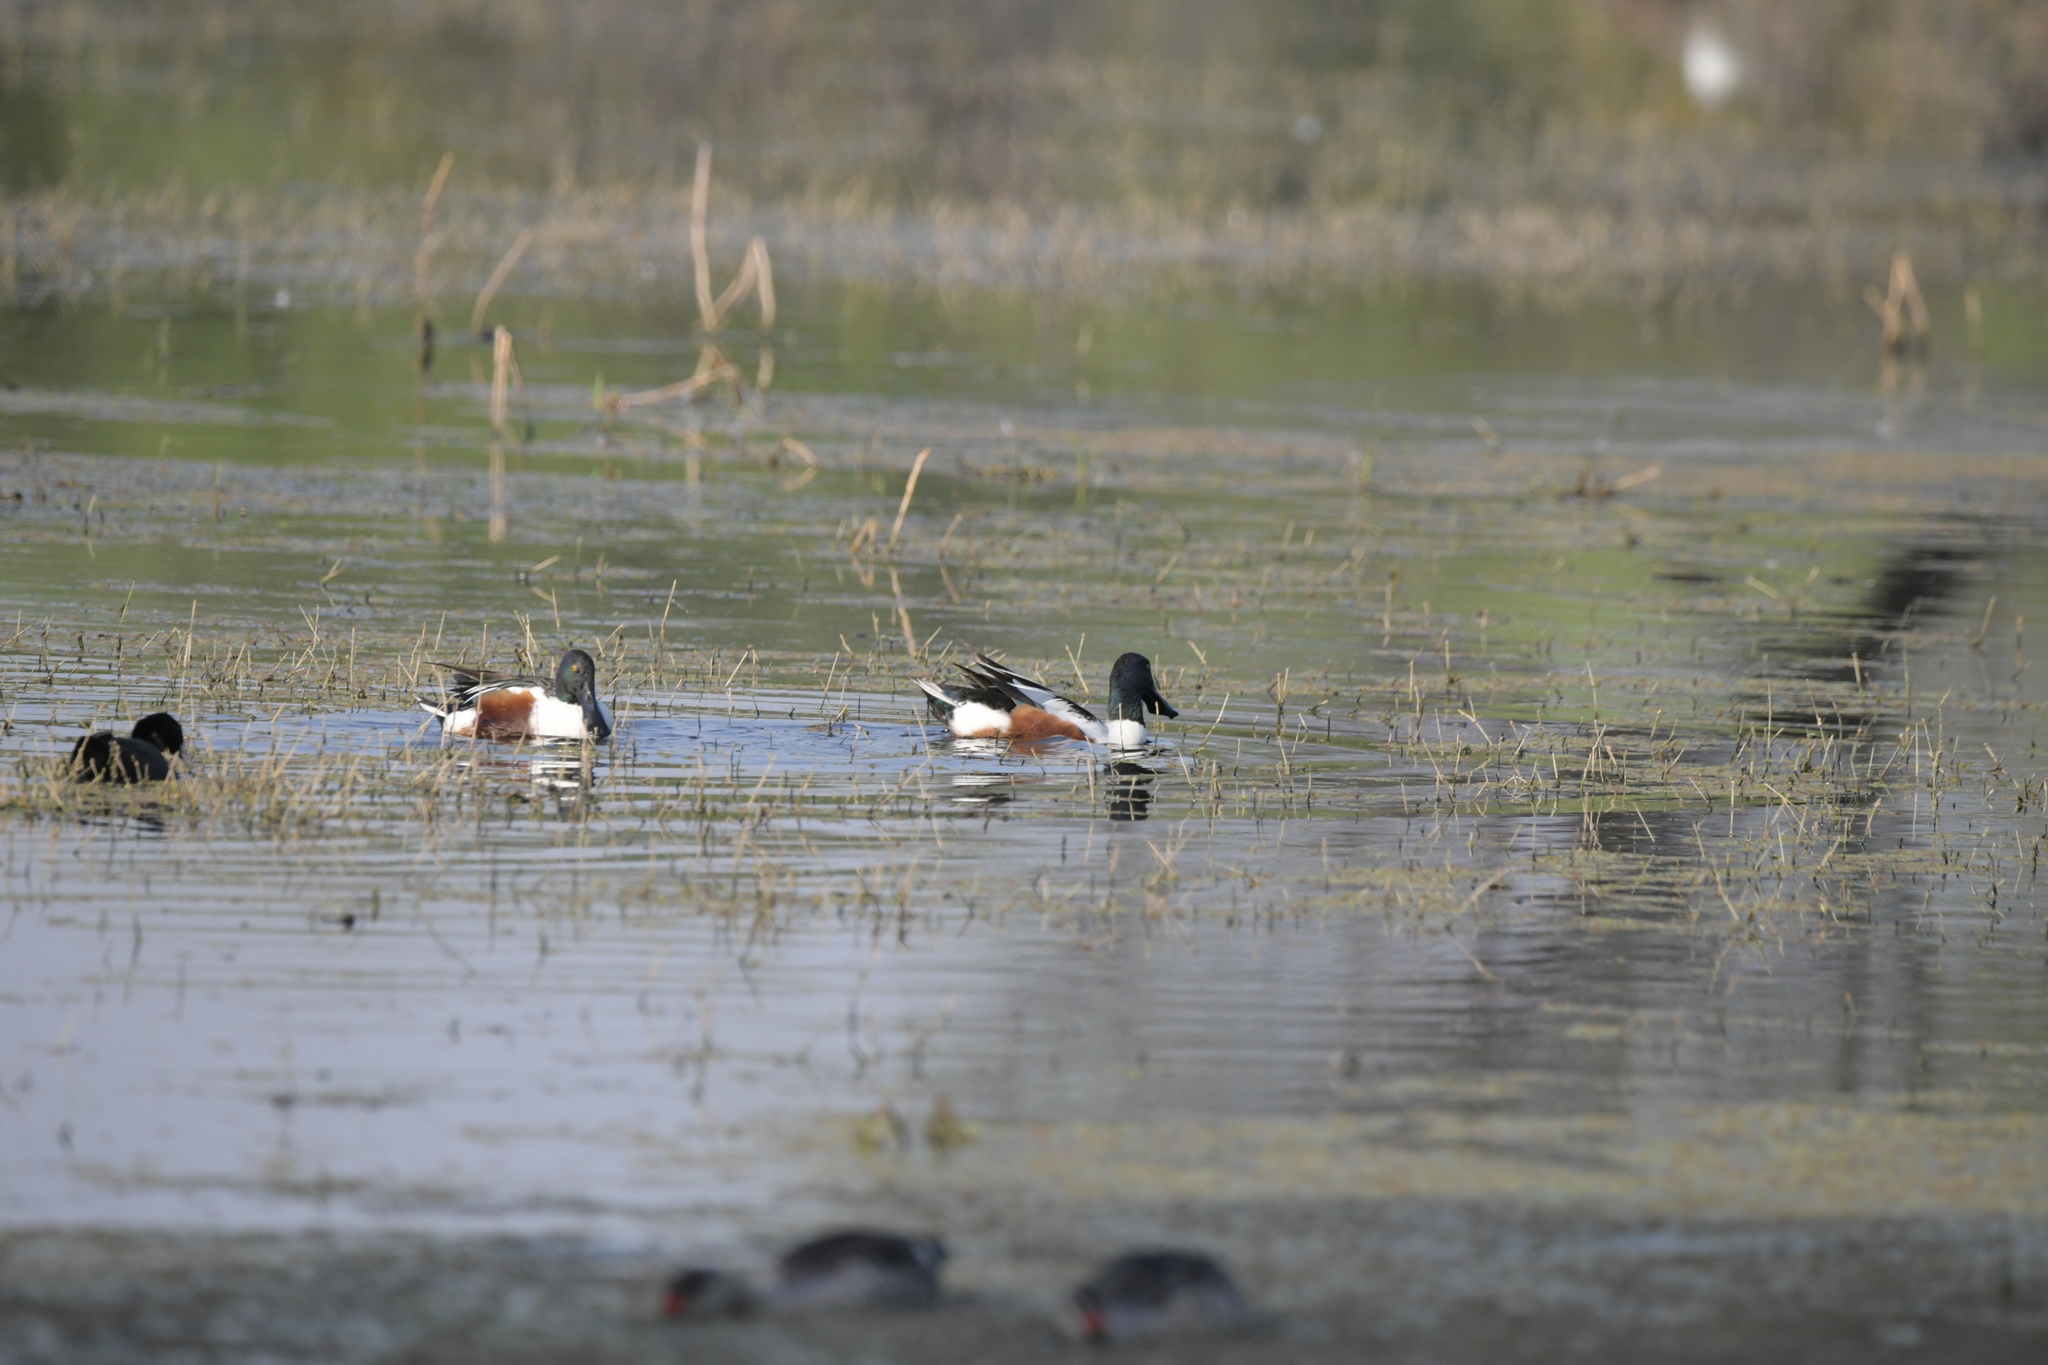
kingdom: Animalia
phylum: Chordata
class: Aves
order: Anseriformes
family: Anatidae
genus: Spatula
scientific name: Spatula clypeata
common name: Northern shoveler
